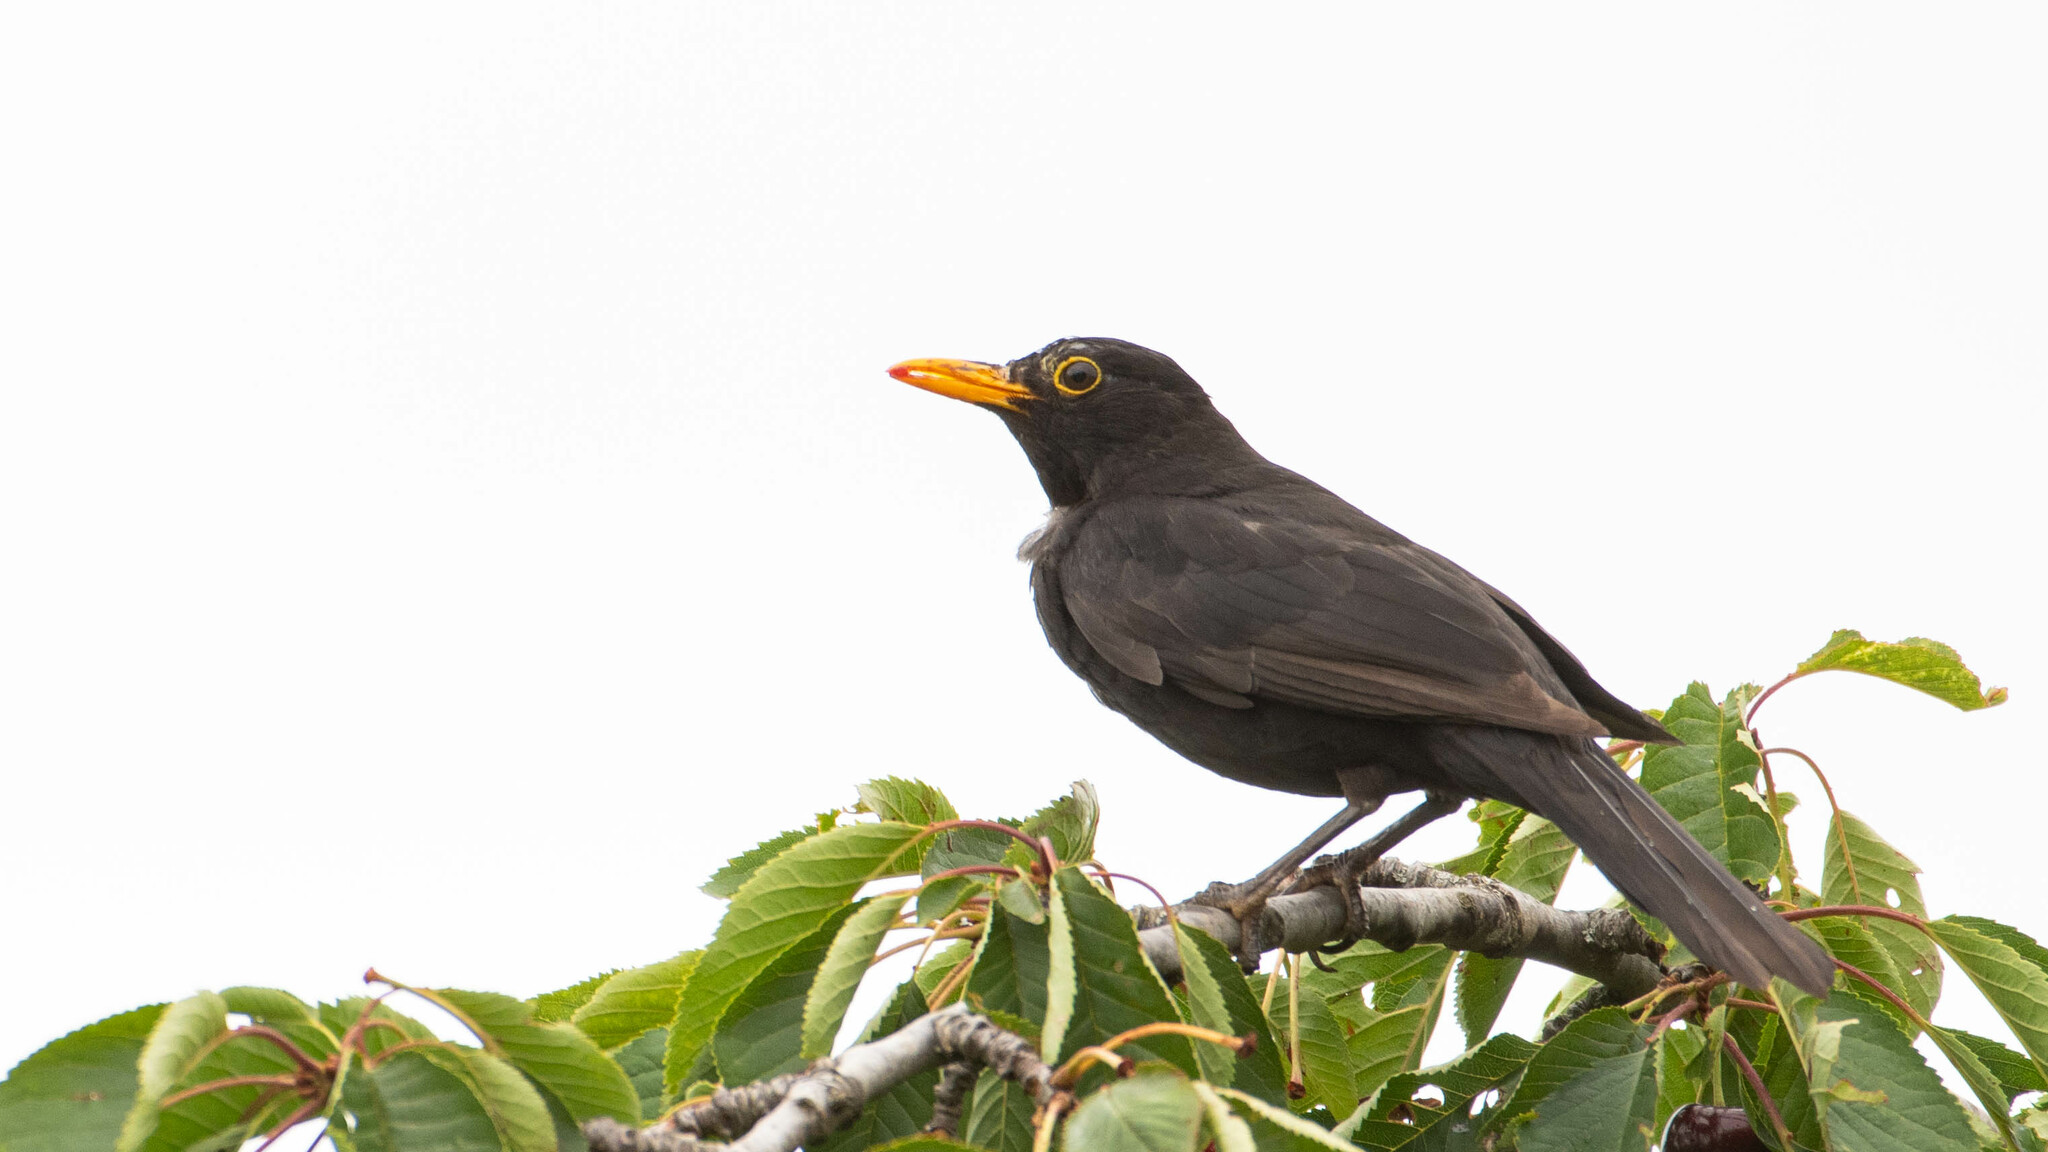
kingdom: Animalia
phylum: Chordata
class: Aves
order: Passeriformes
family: Turdidae
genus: Turdus
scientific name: Turdus merula
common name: Common blackbird
